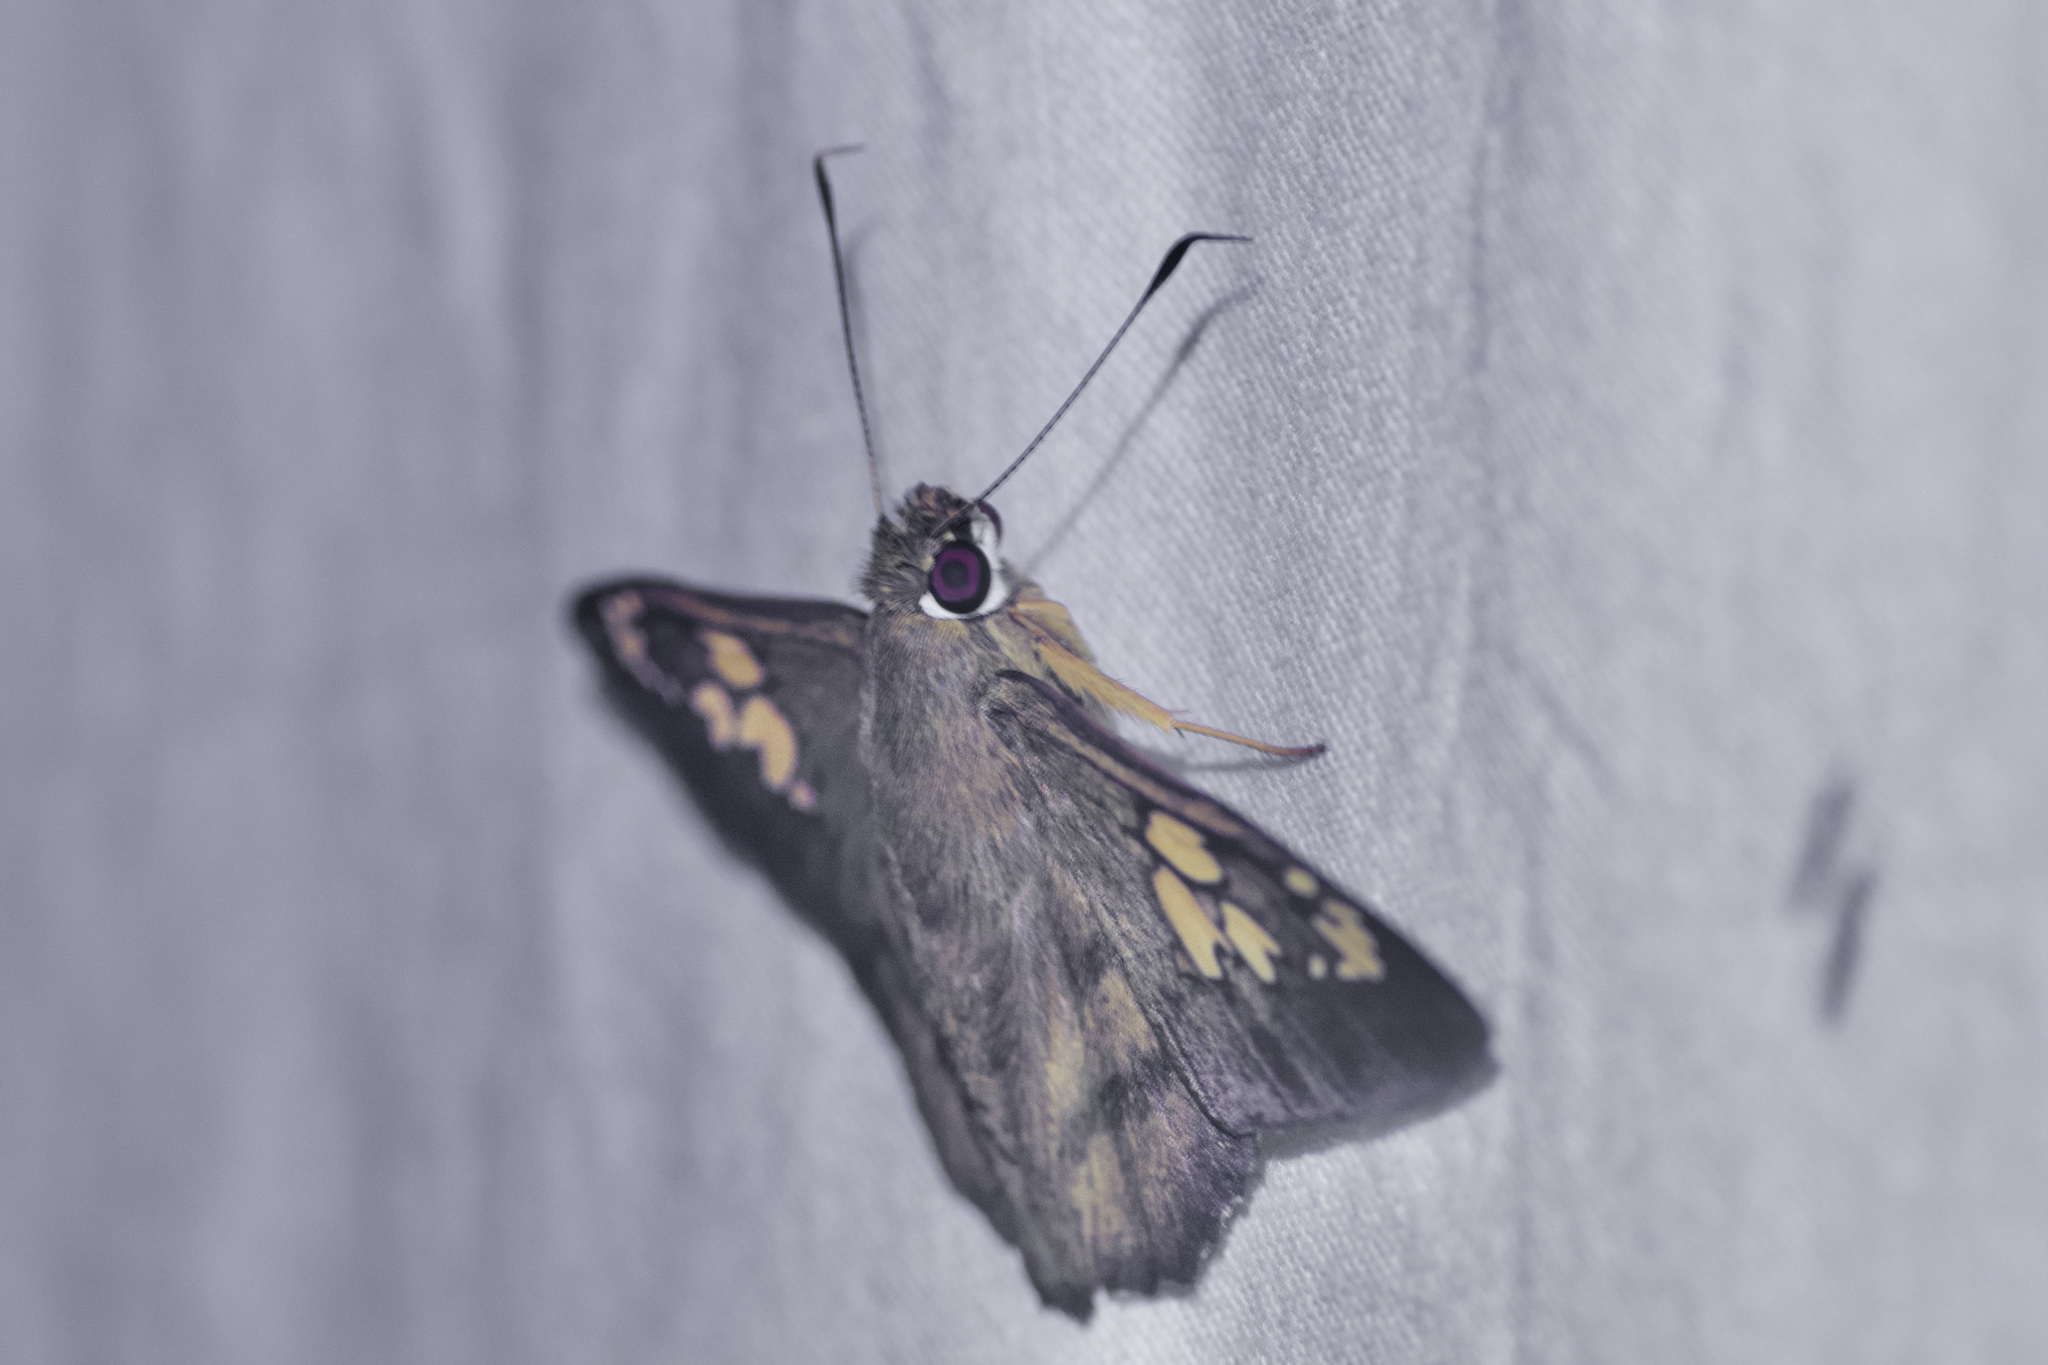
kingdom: Animalia
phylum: Arthropoda
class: Insecta
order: Lepidoptera
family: Hesperiidae
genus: Nascus
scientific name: Nascus phocus
